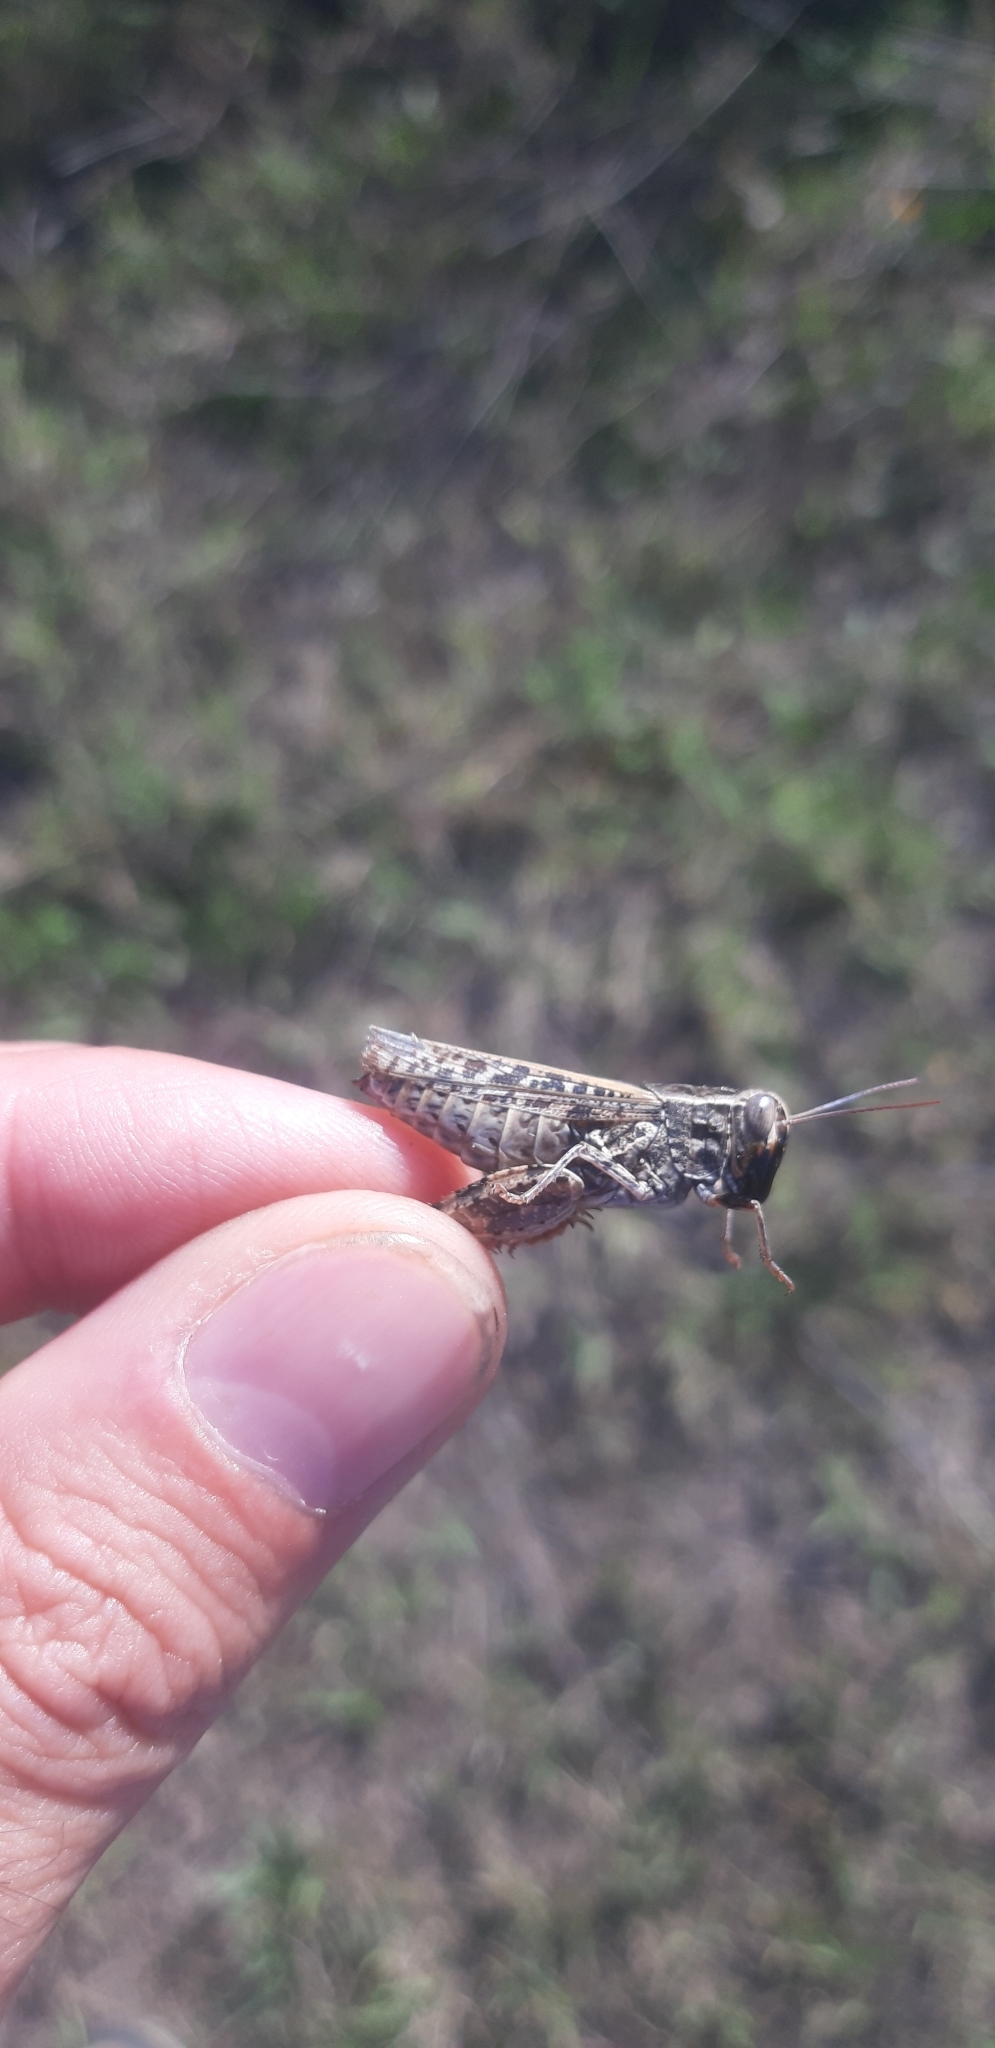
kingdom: Animalia
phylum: Arthropoda
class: Insecta
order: Orthoptera
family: Acrididae
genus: Calliptamus
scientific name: Calliptamus italicus
